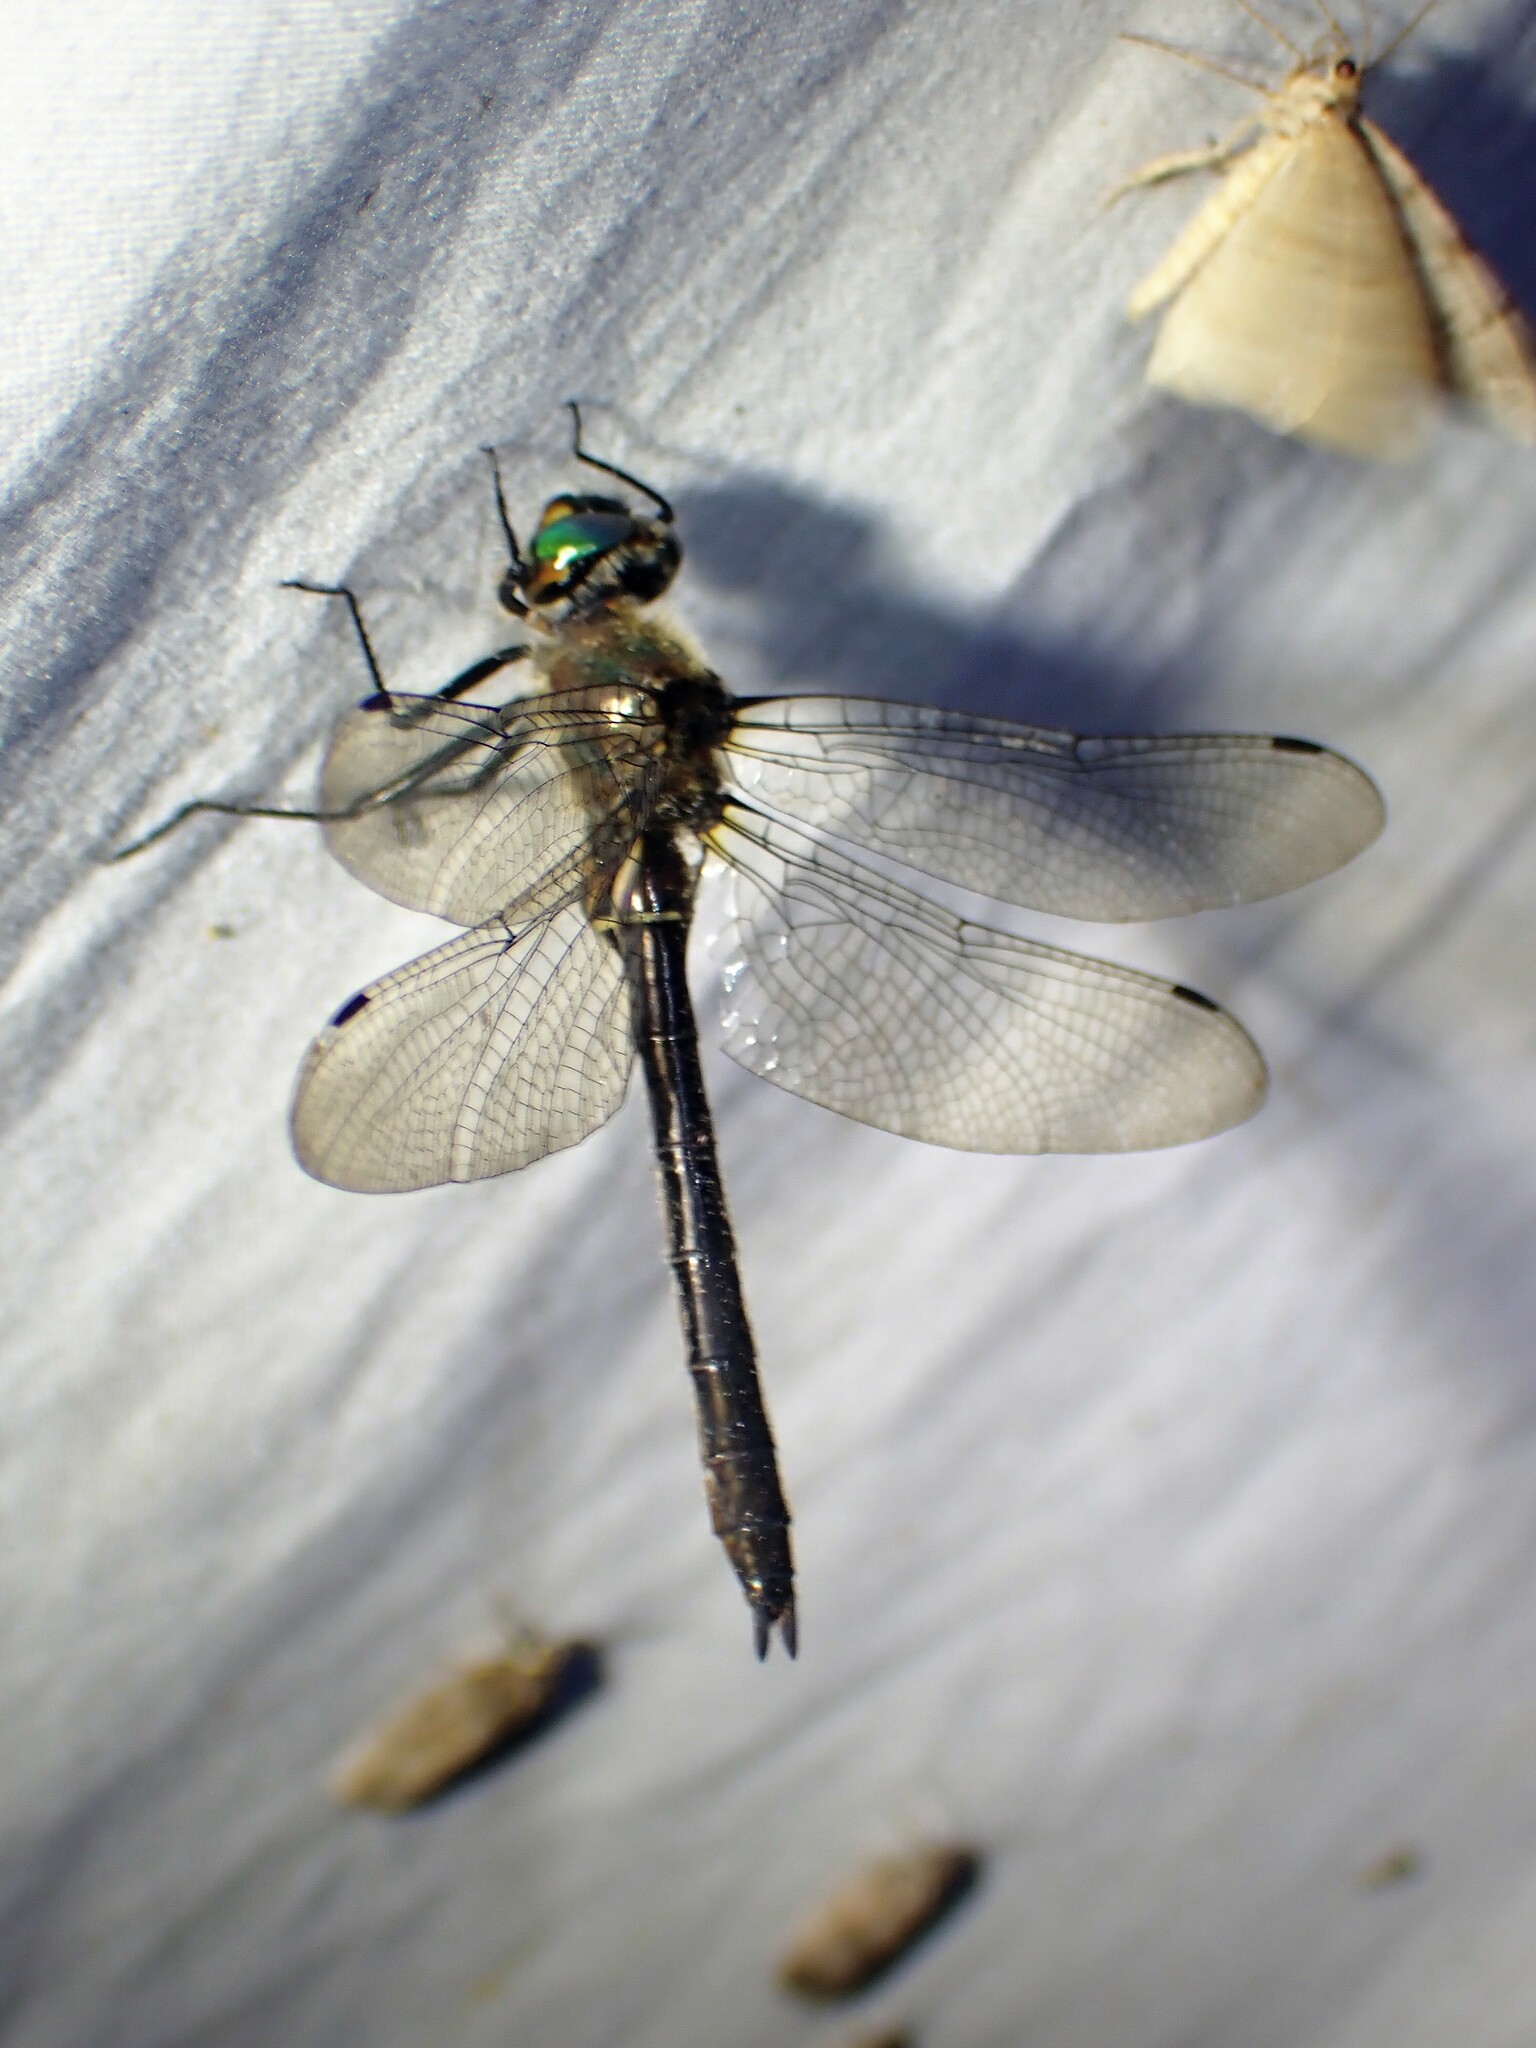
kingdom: Animalia
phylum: Arthropoda
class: Insecta
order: Odonata
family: Corduliidae
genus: Cordulia
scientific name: Cordulia shurtleffii
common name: American emerald
